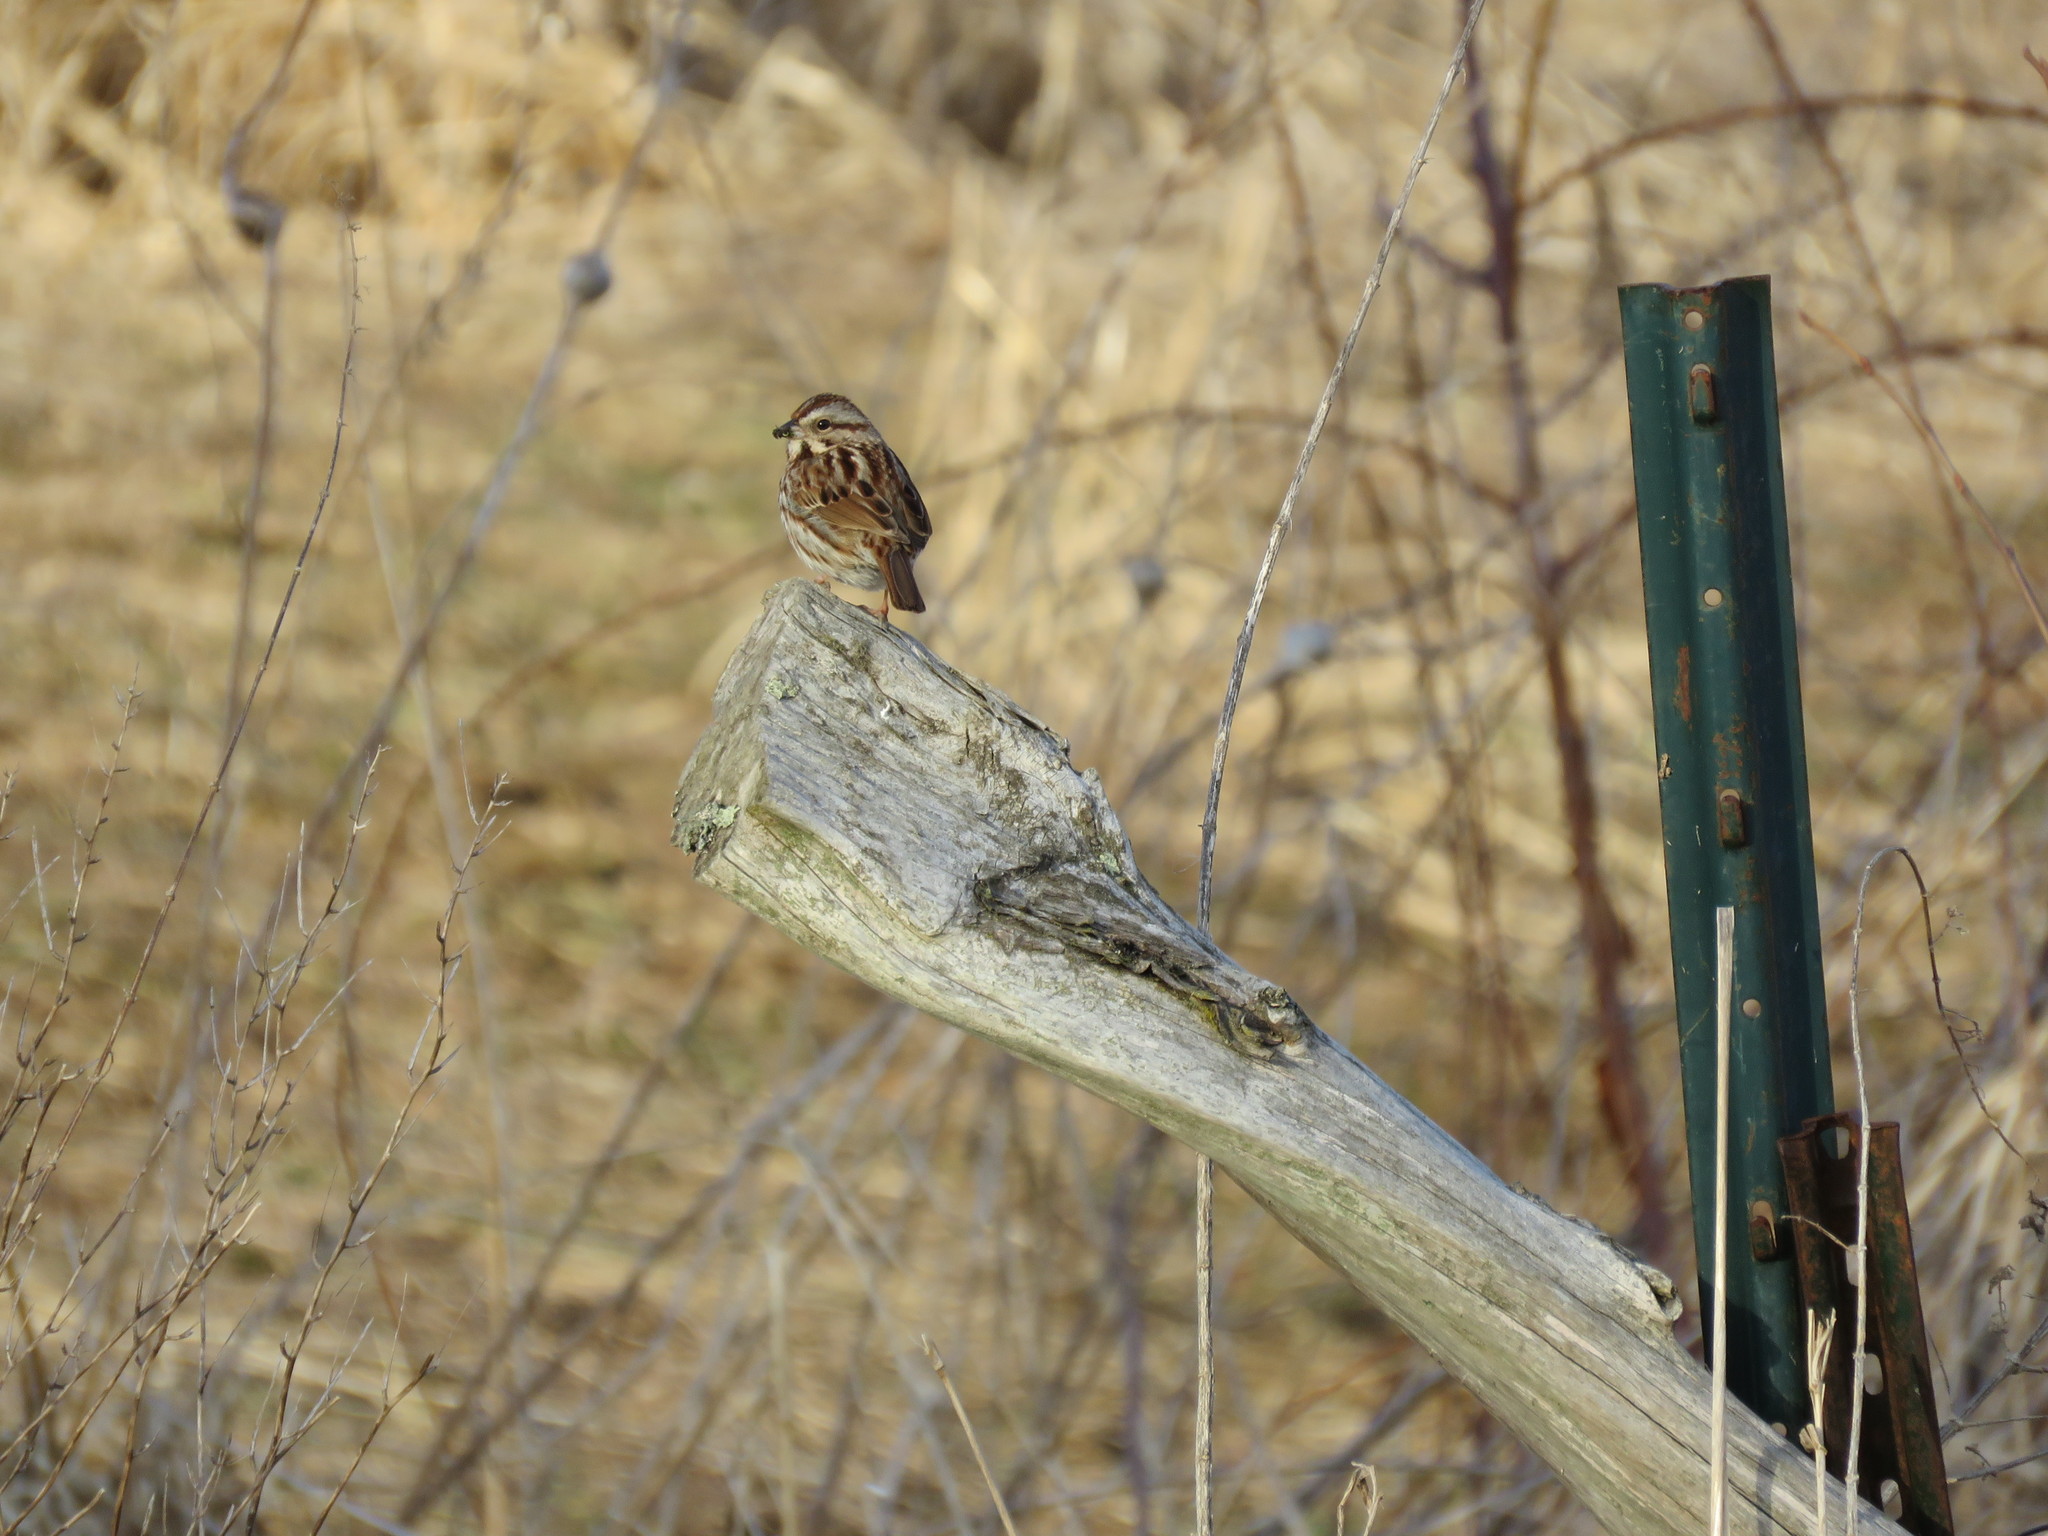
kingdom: Animalia
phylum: Chordata
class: Aves
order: Passeriformes
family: Passerellidae
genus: Melospiza
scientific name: Melospiza melodia
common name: Song sparrow
